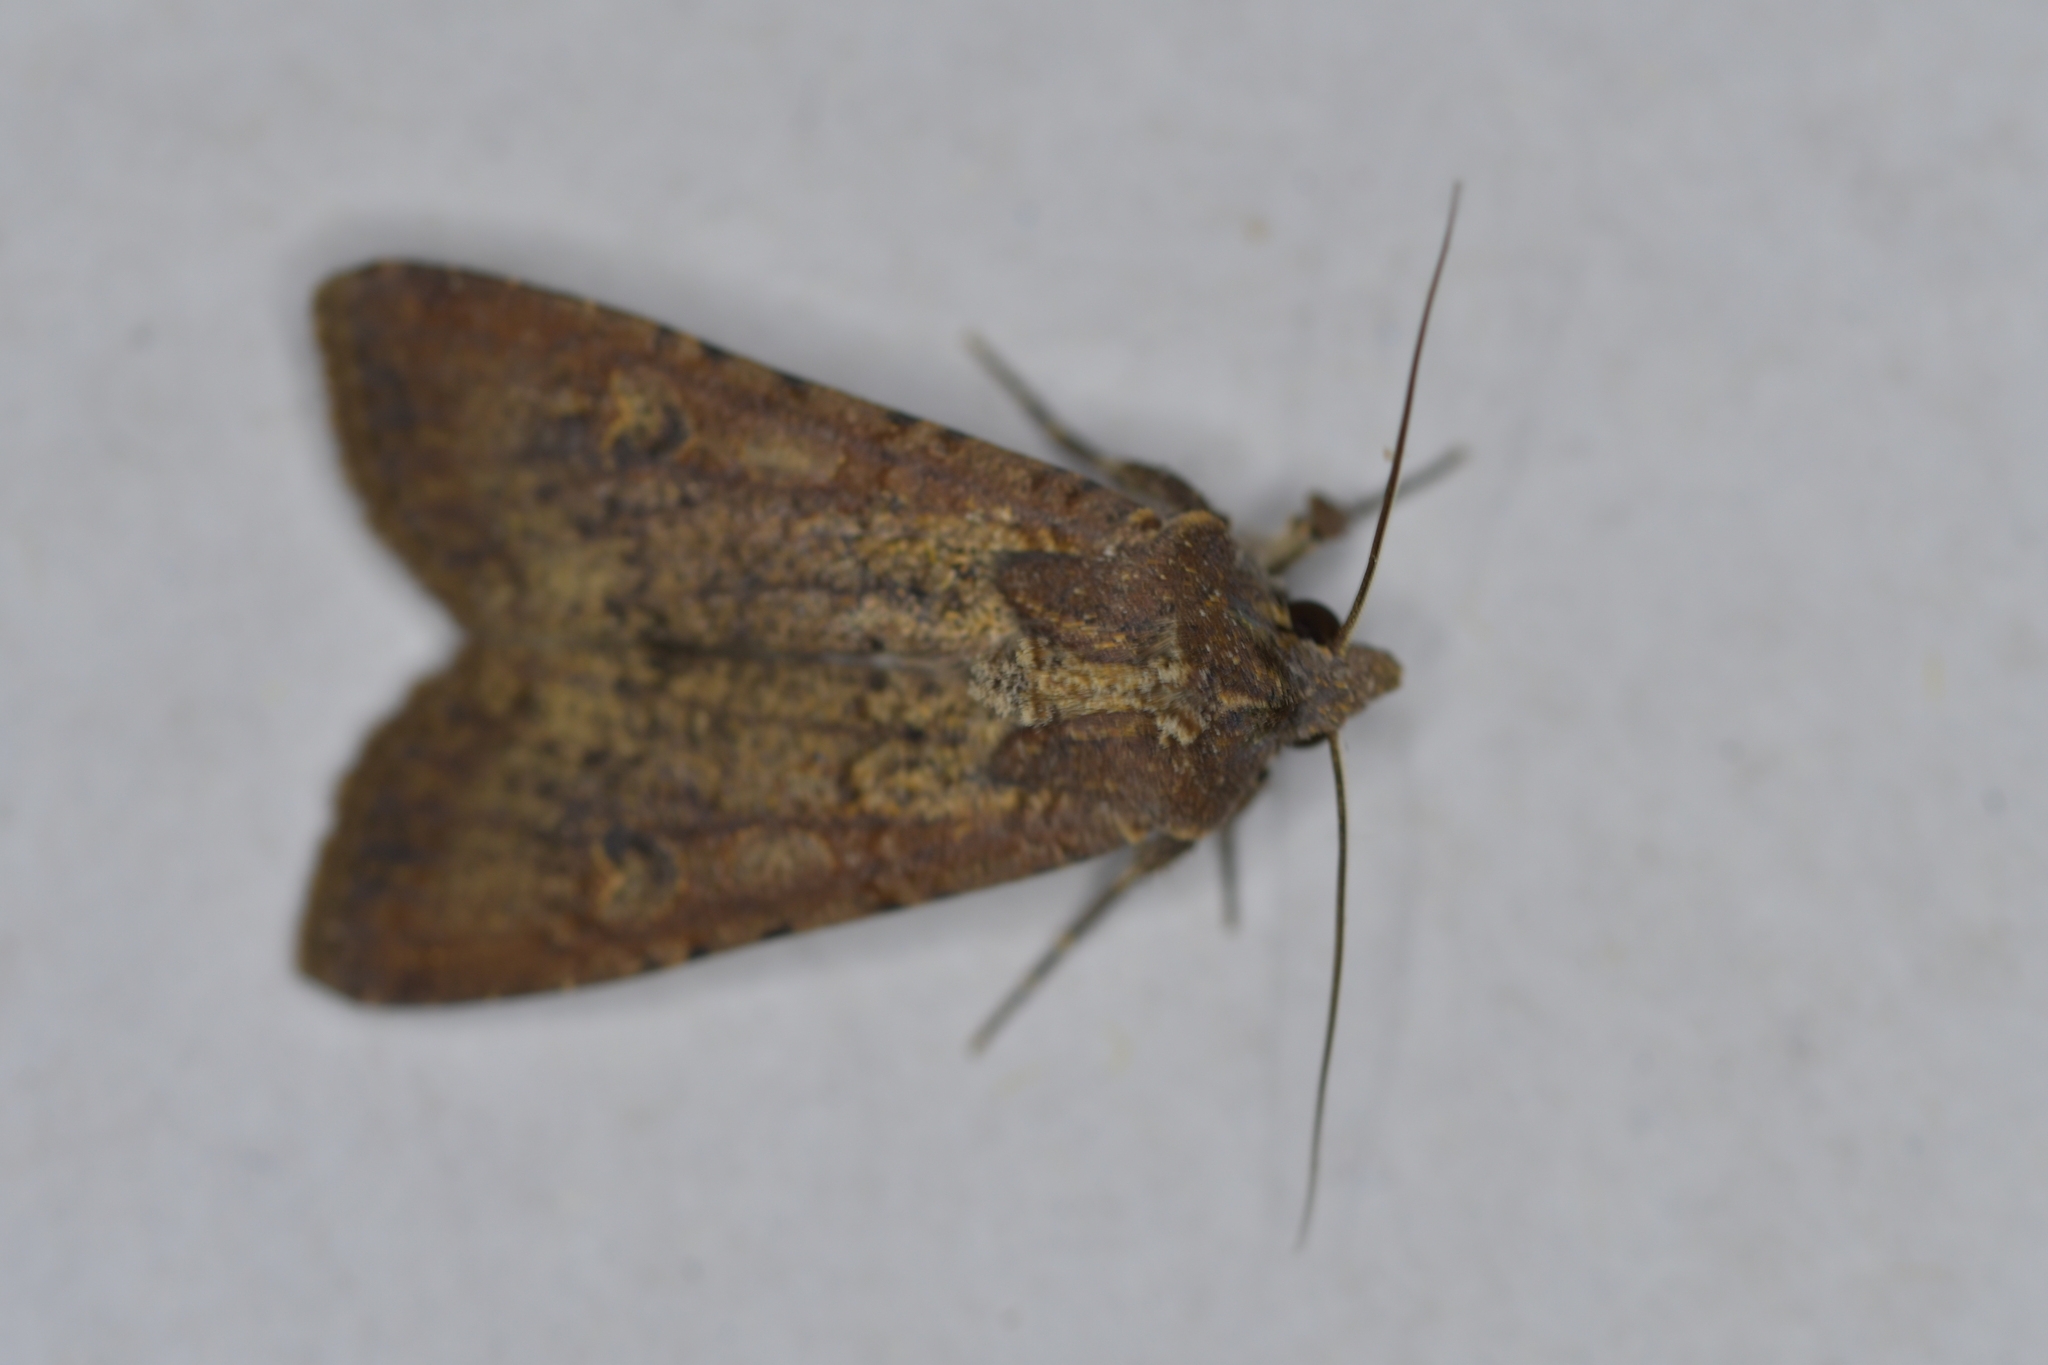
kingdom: Animalia
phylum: Arthropoda
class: Insecta
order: Lepidoptera
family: Noctuidae
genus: Peridroma
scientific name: Peridroma saucia
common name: Pearly underwing
